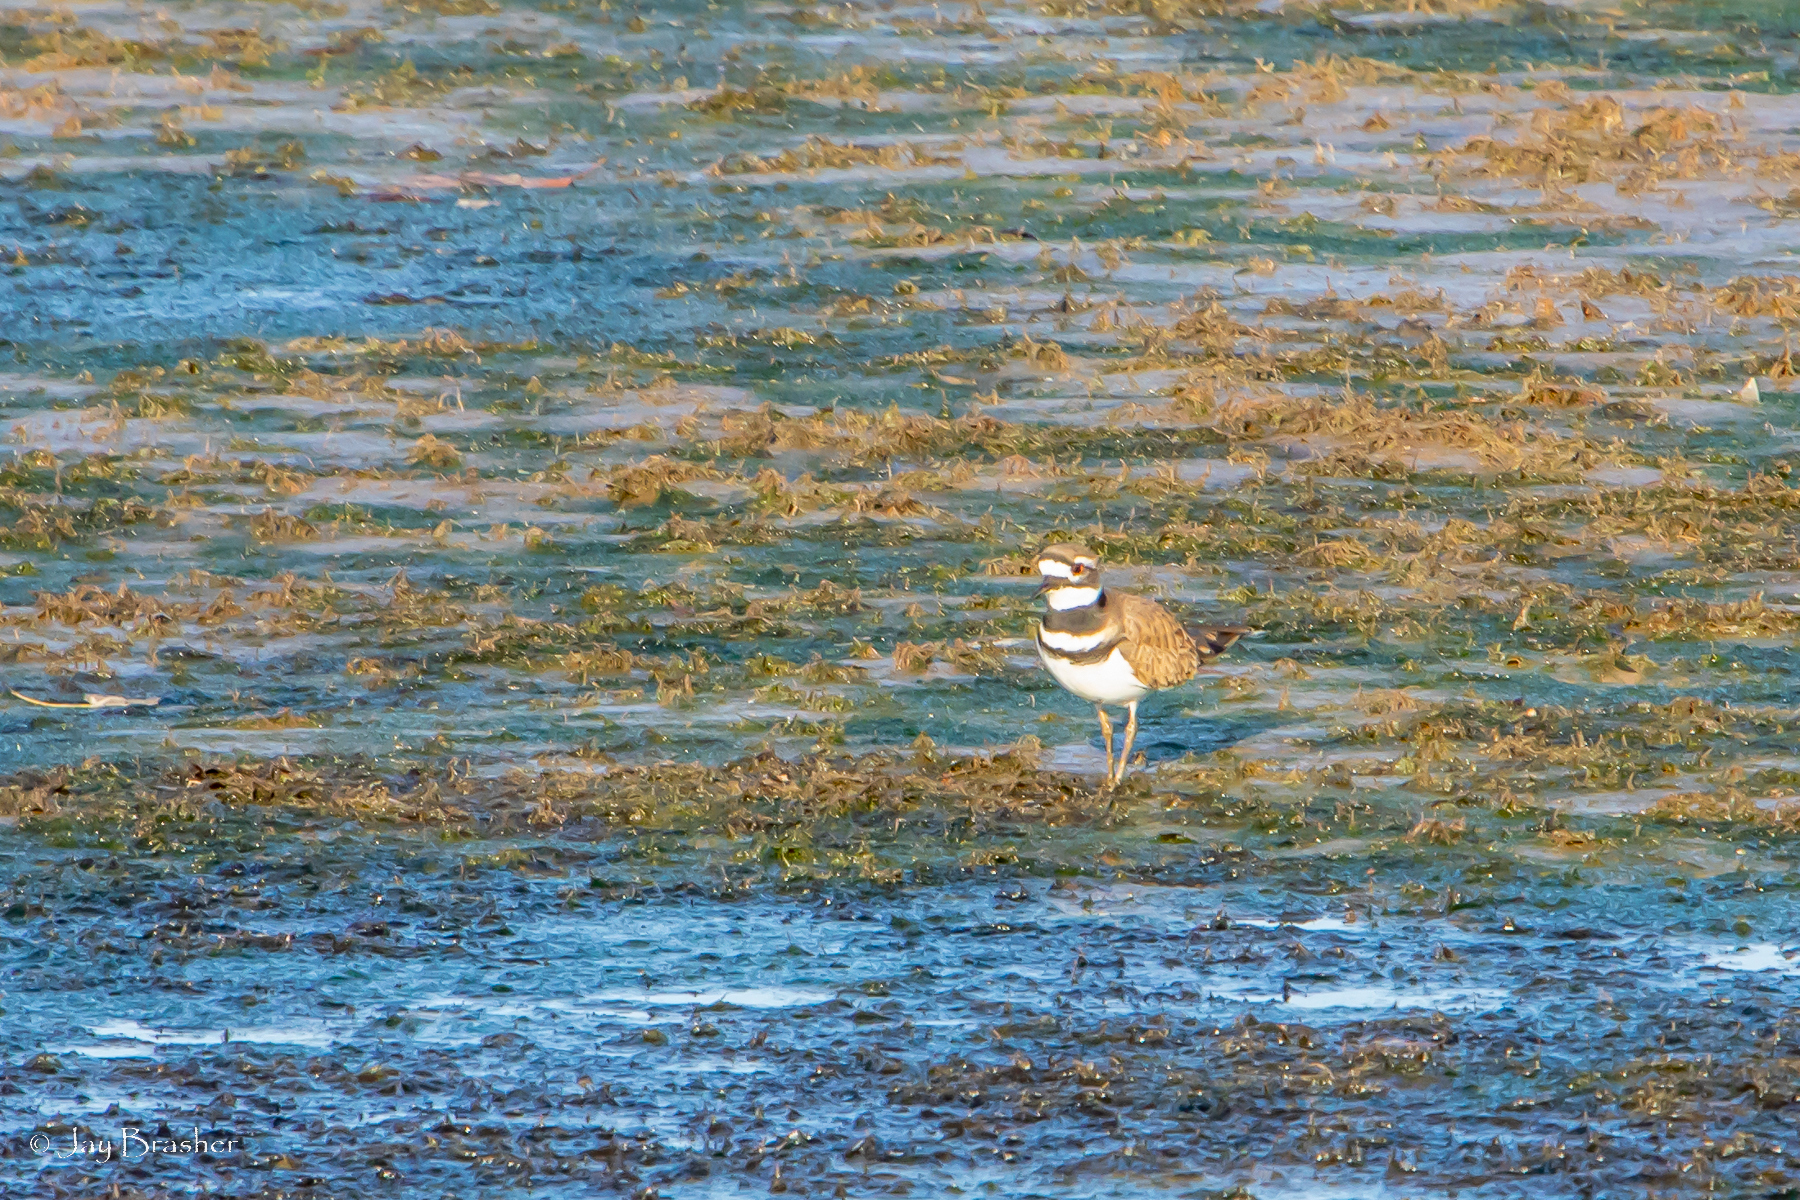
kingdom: Animalia
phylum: Chordata
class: Aves
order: Charadriiformes
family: Charadriidae
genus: Charadrius
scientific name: Charadrius vociferus
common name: Killdeer
